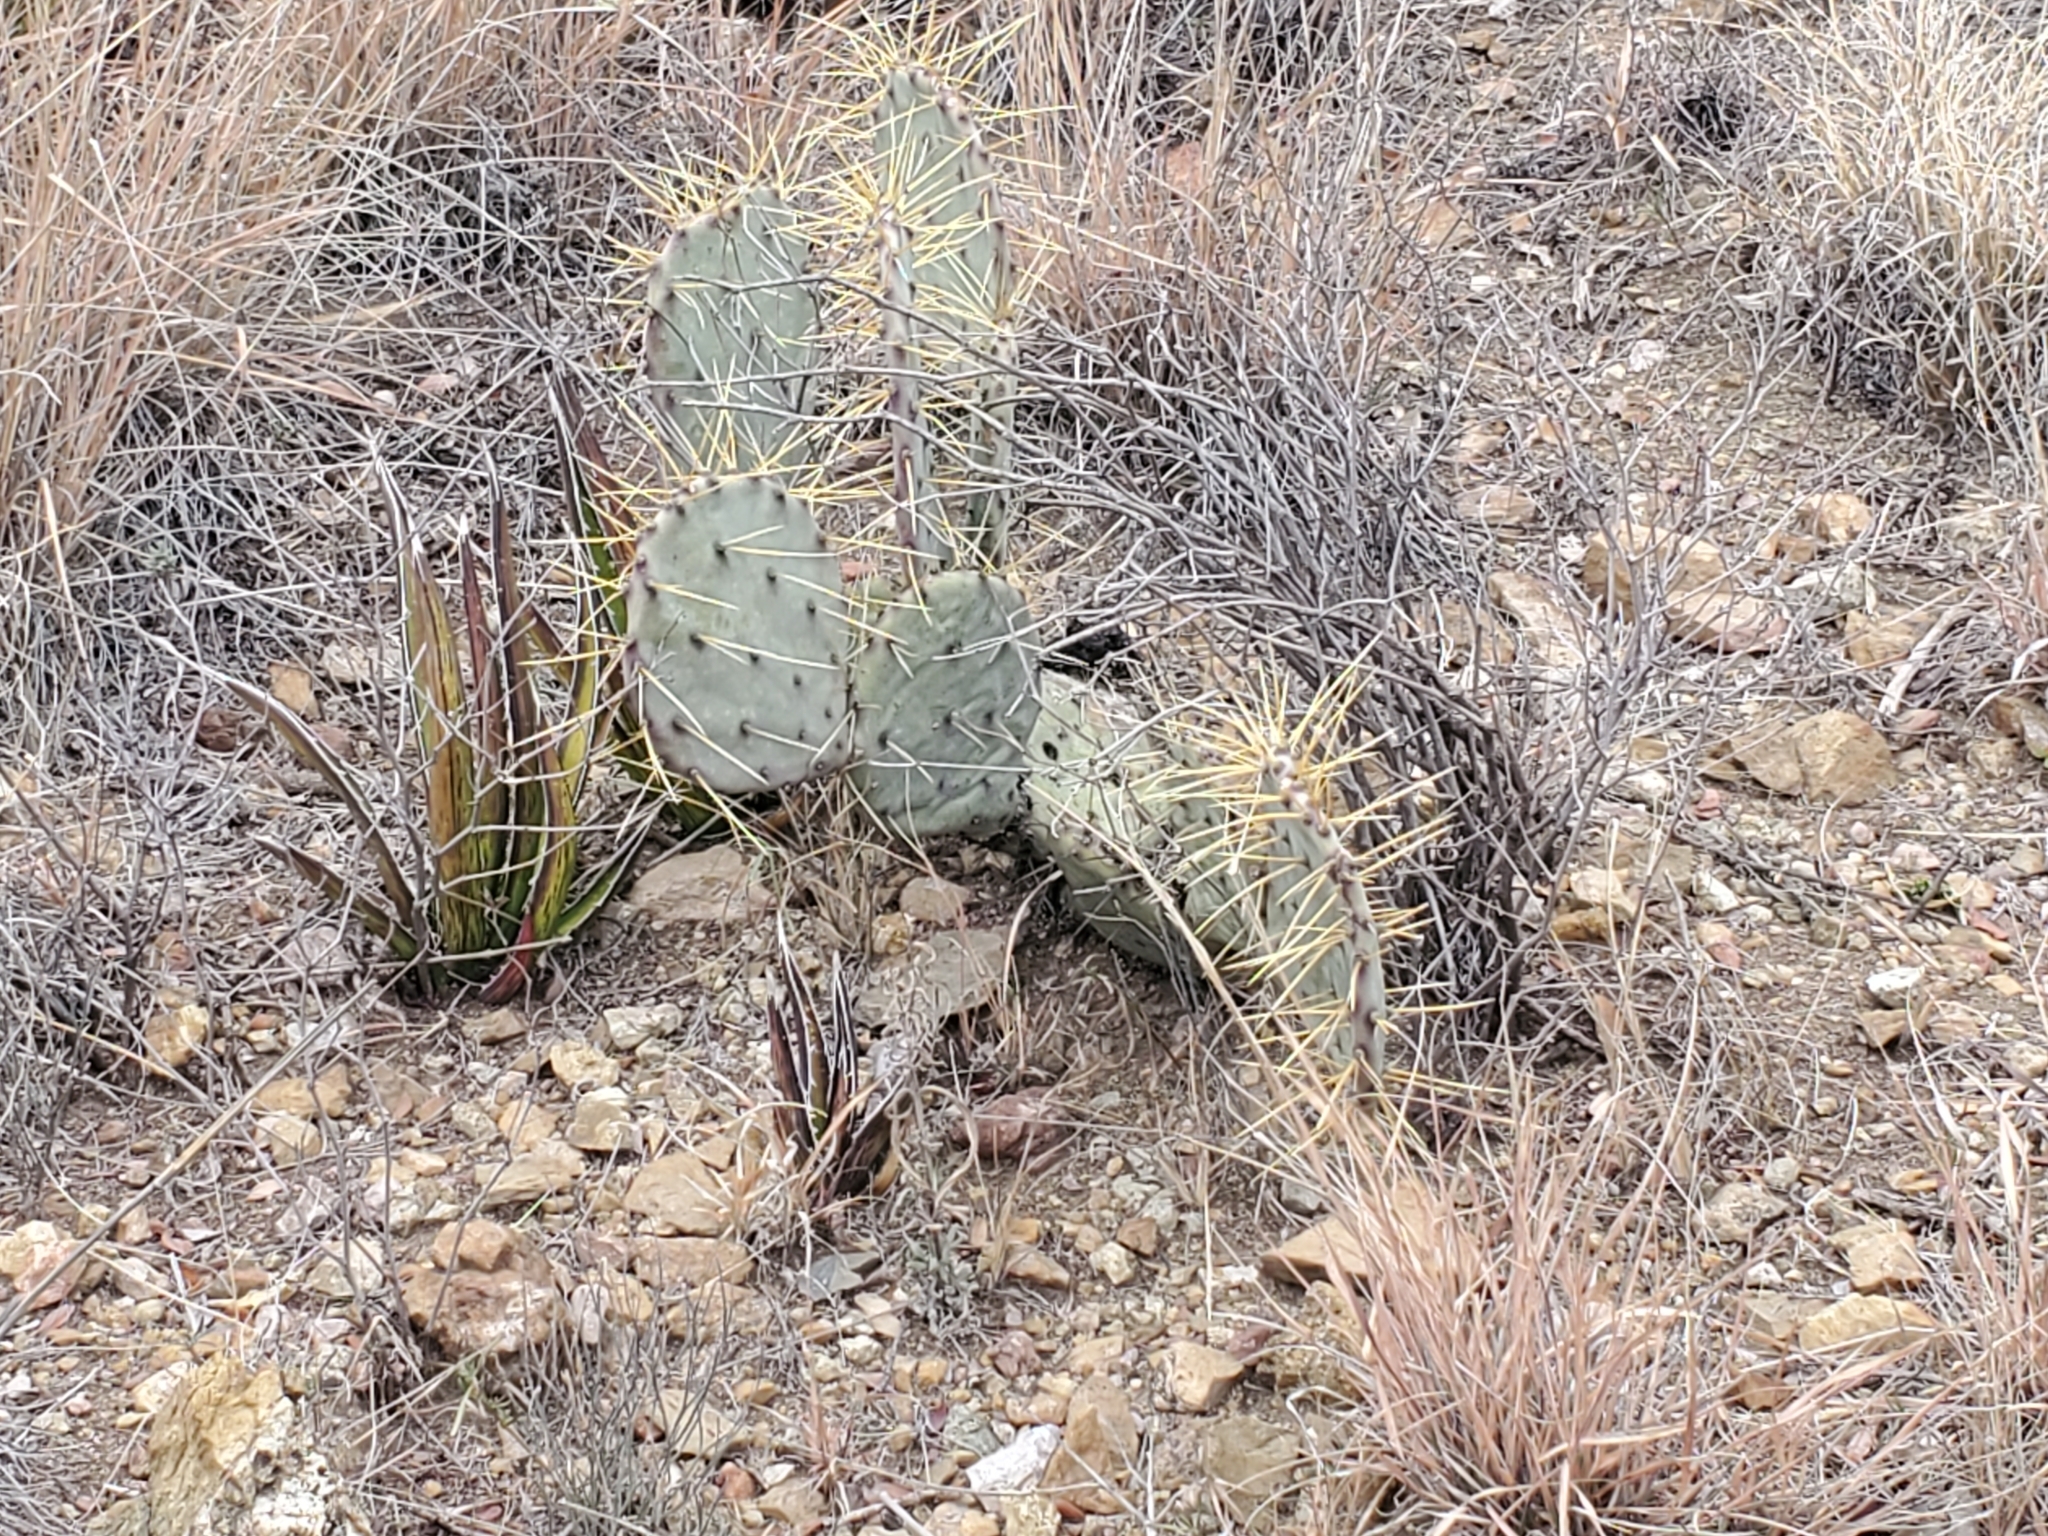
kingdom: Plantae
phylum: Tracheophyta
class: Magnoliopsida
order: Caryophyllales
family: Cactaceae
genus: Opuntia
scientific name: Opuntia chisosensis
